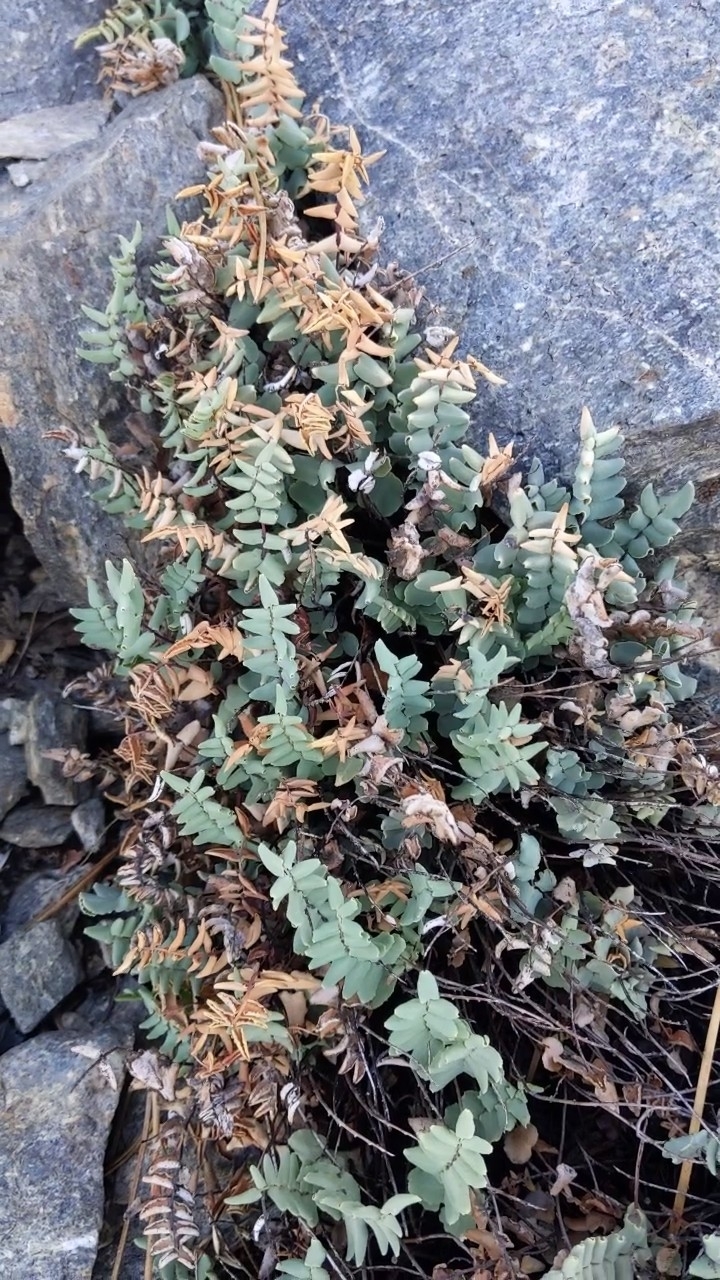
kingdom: Plantae
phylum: Tracheophyta
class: Polypodiopsida
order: Polypodiales
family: Pteridaceae
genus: Pellaea
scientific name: Pellaea bridgesii
